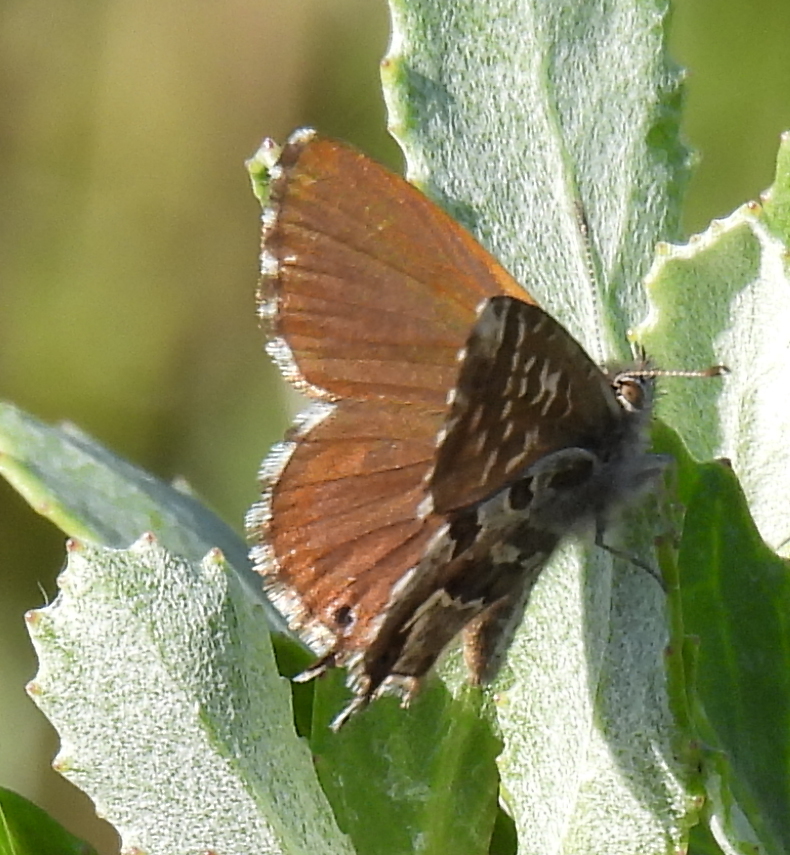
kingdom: Animalia
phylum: Arthropoda
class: Insecta
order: Lepidoptera
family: Lycaenidae
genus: Cacyreus
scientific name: Cacyreus marshalli
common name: Geranium bronze
